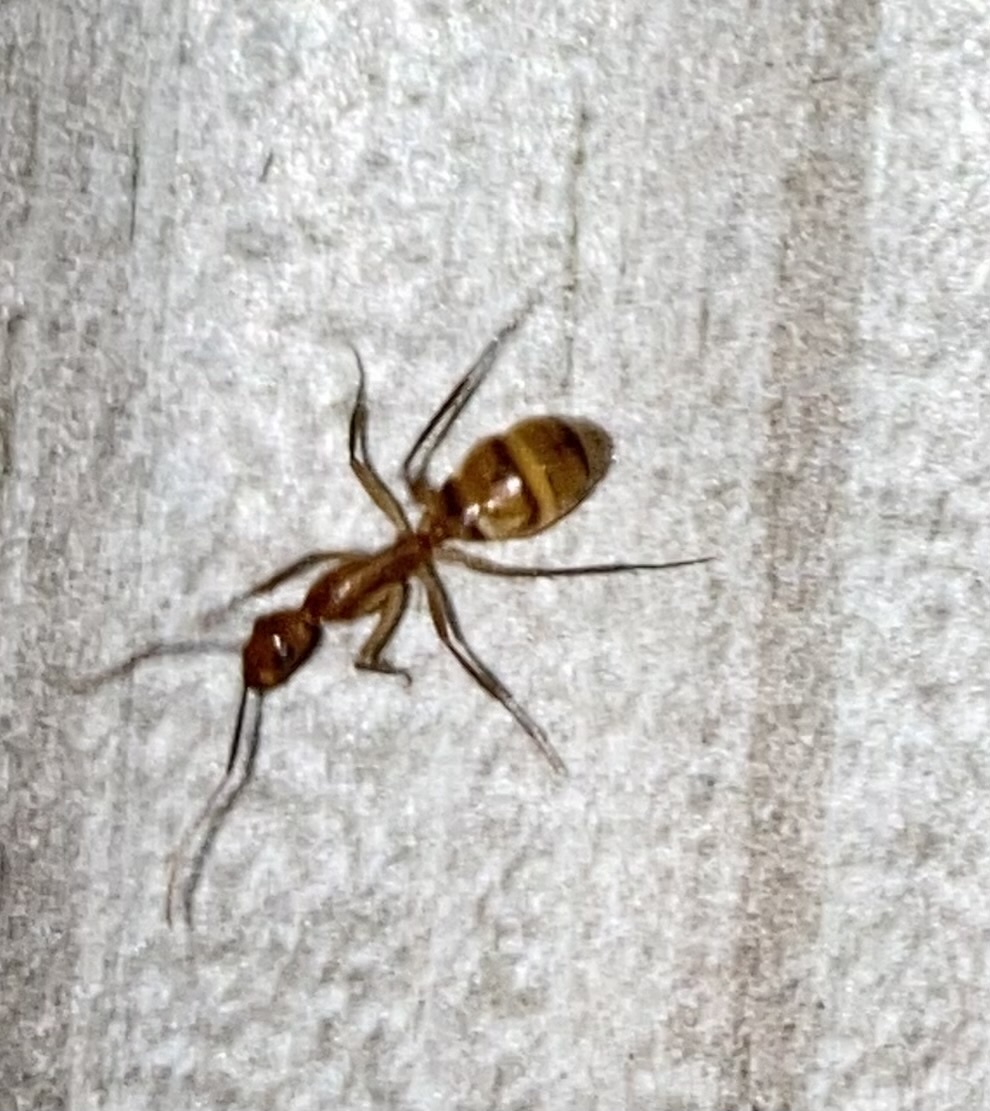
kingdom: Animalia
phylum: Arthropoda
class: Insecta
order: Hymenoptera
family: Formicidae
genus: Camponotus
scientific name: Camponotus
